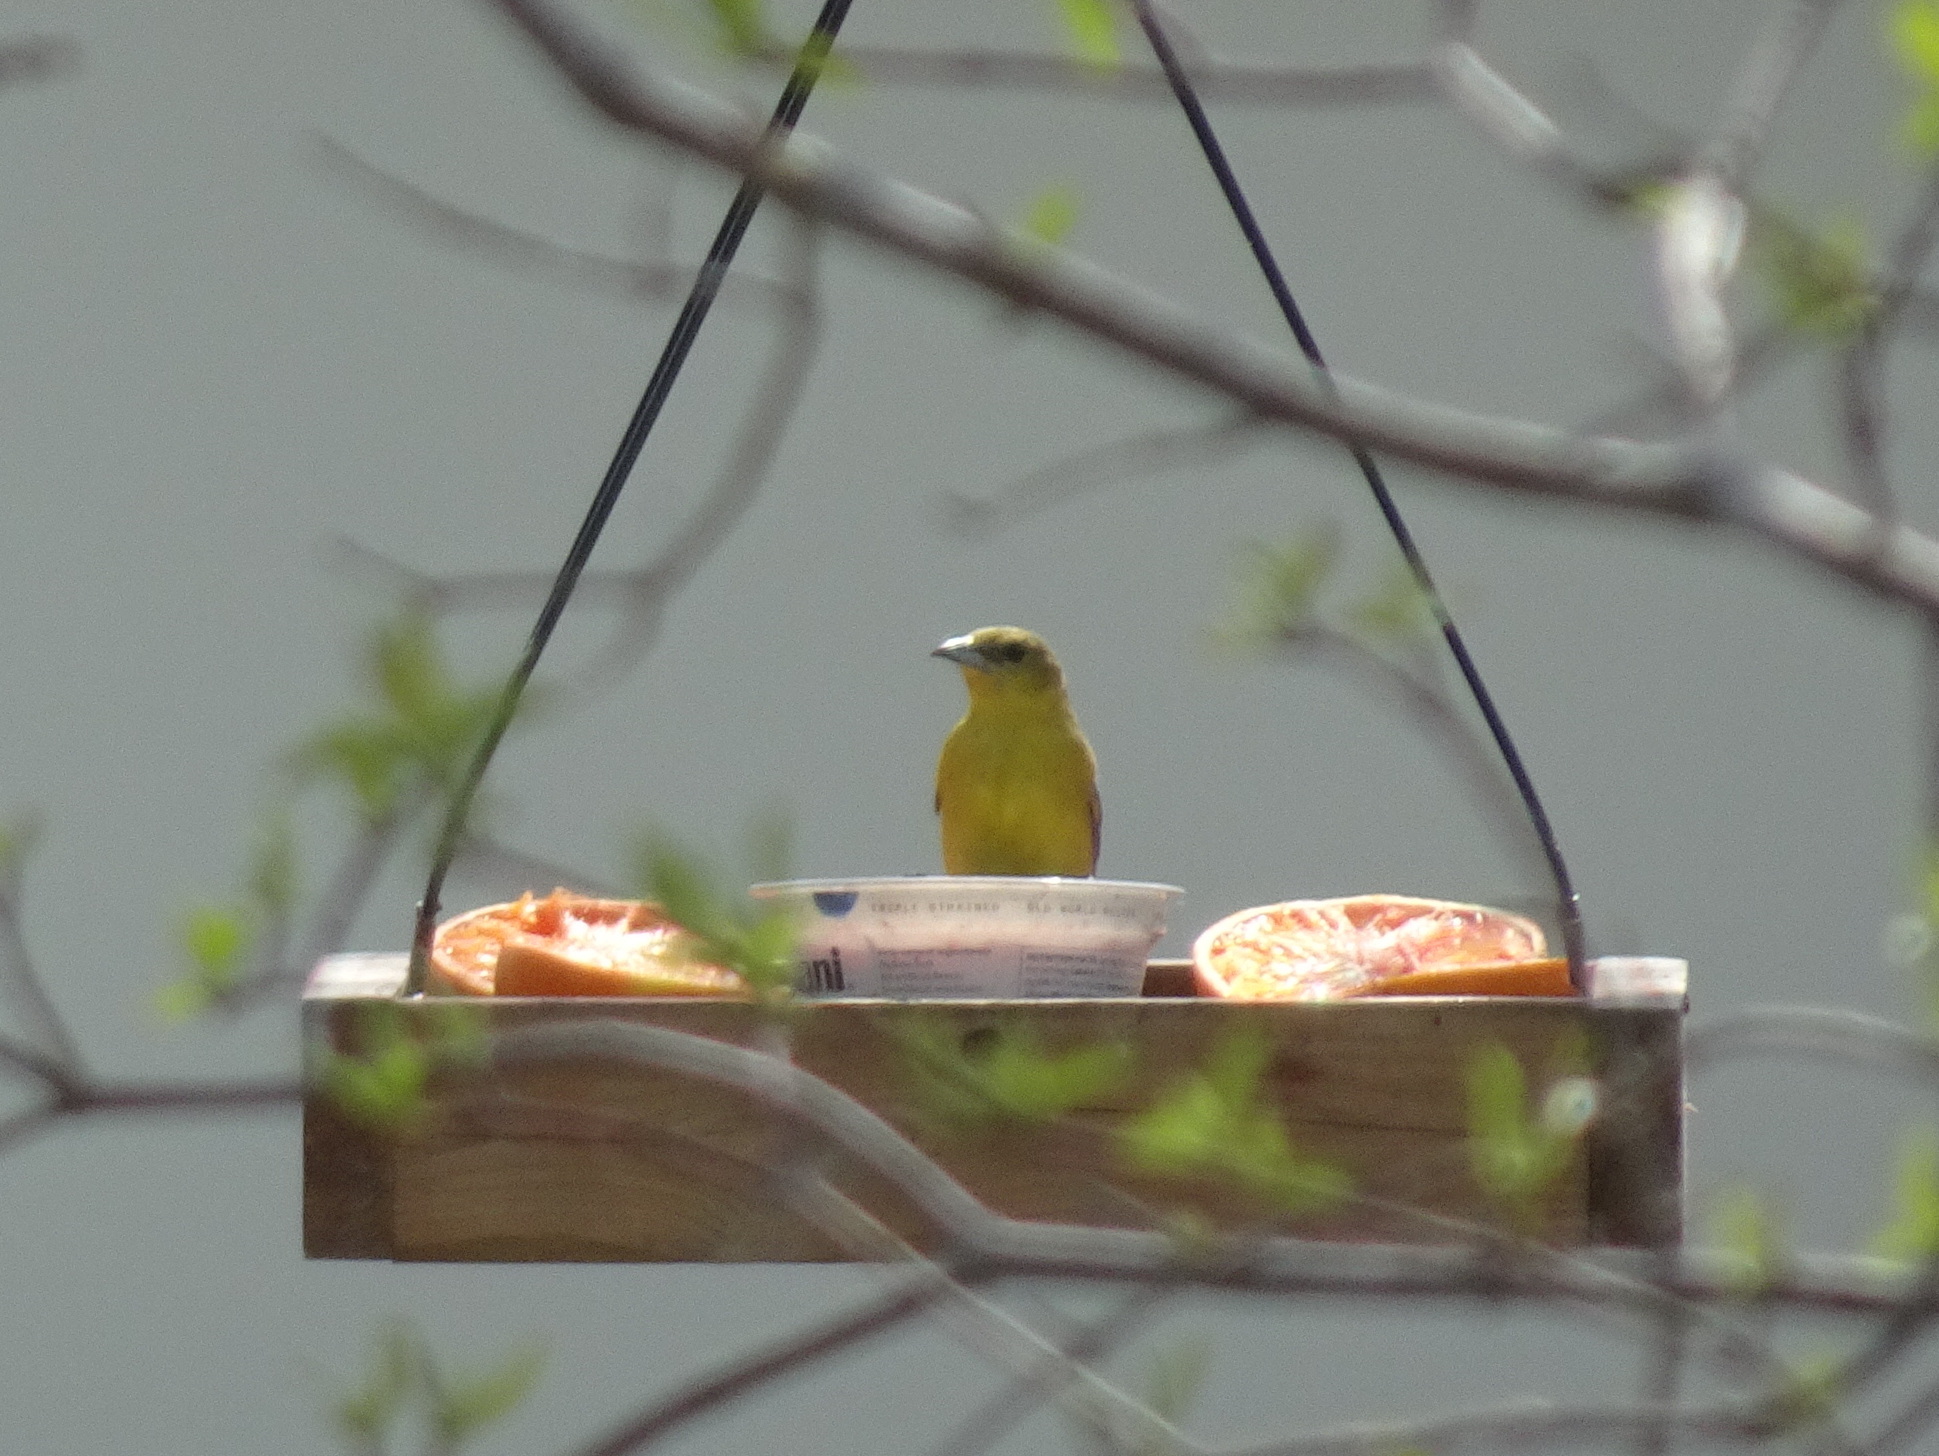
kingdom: Animalia
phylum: Chordata
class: Aves
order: Passeriformes
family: Icteridae
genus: Icterus
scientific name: Icterus spurius
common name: Orchard oriole
